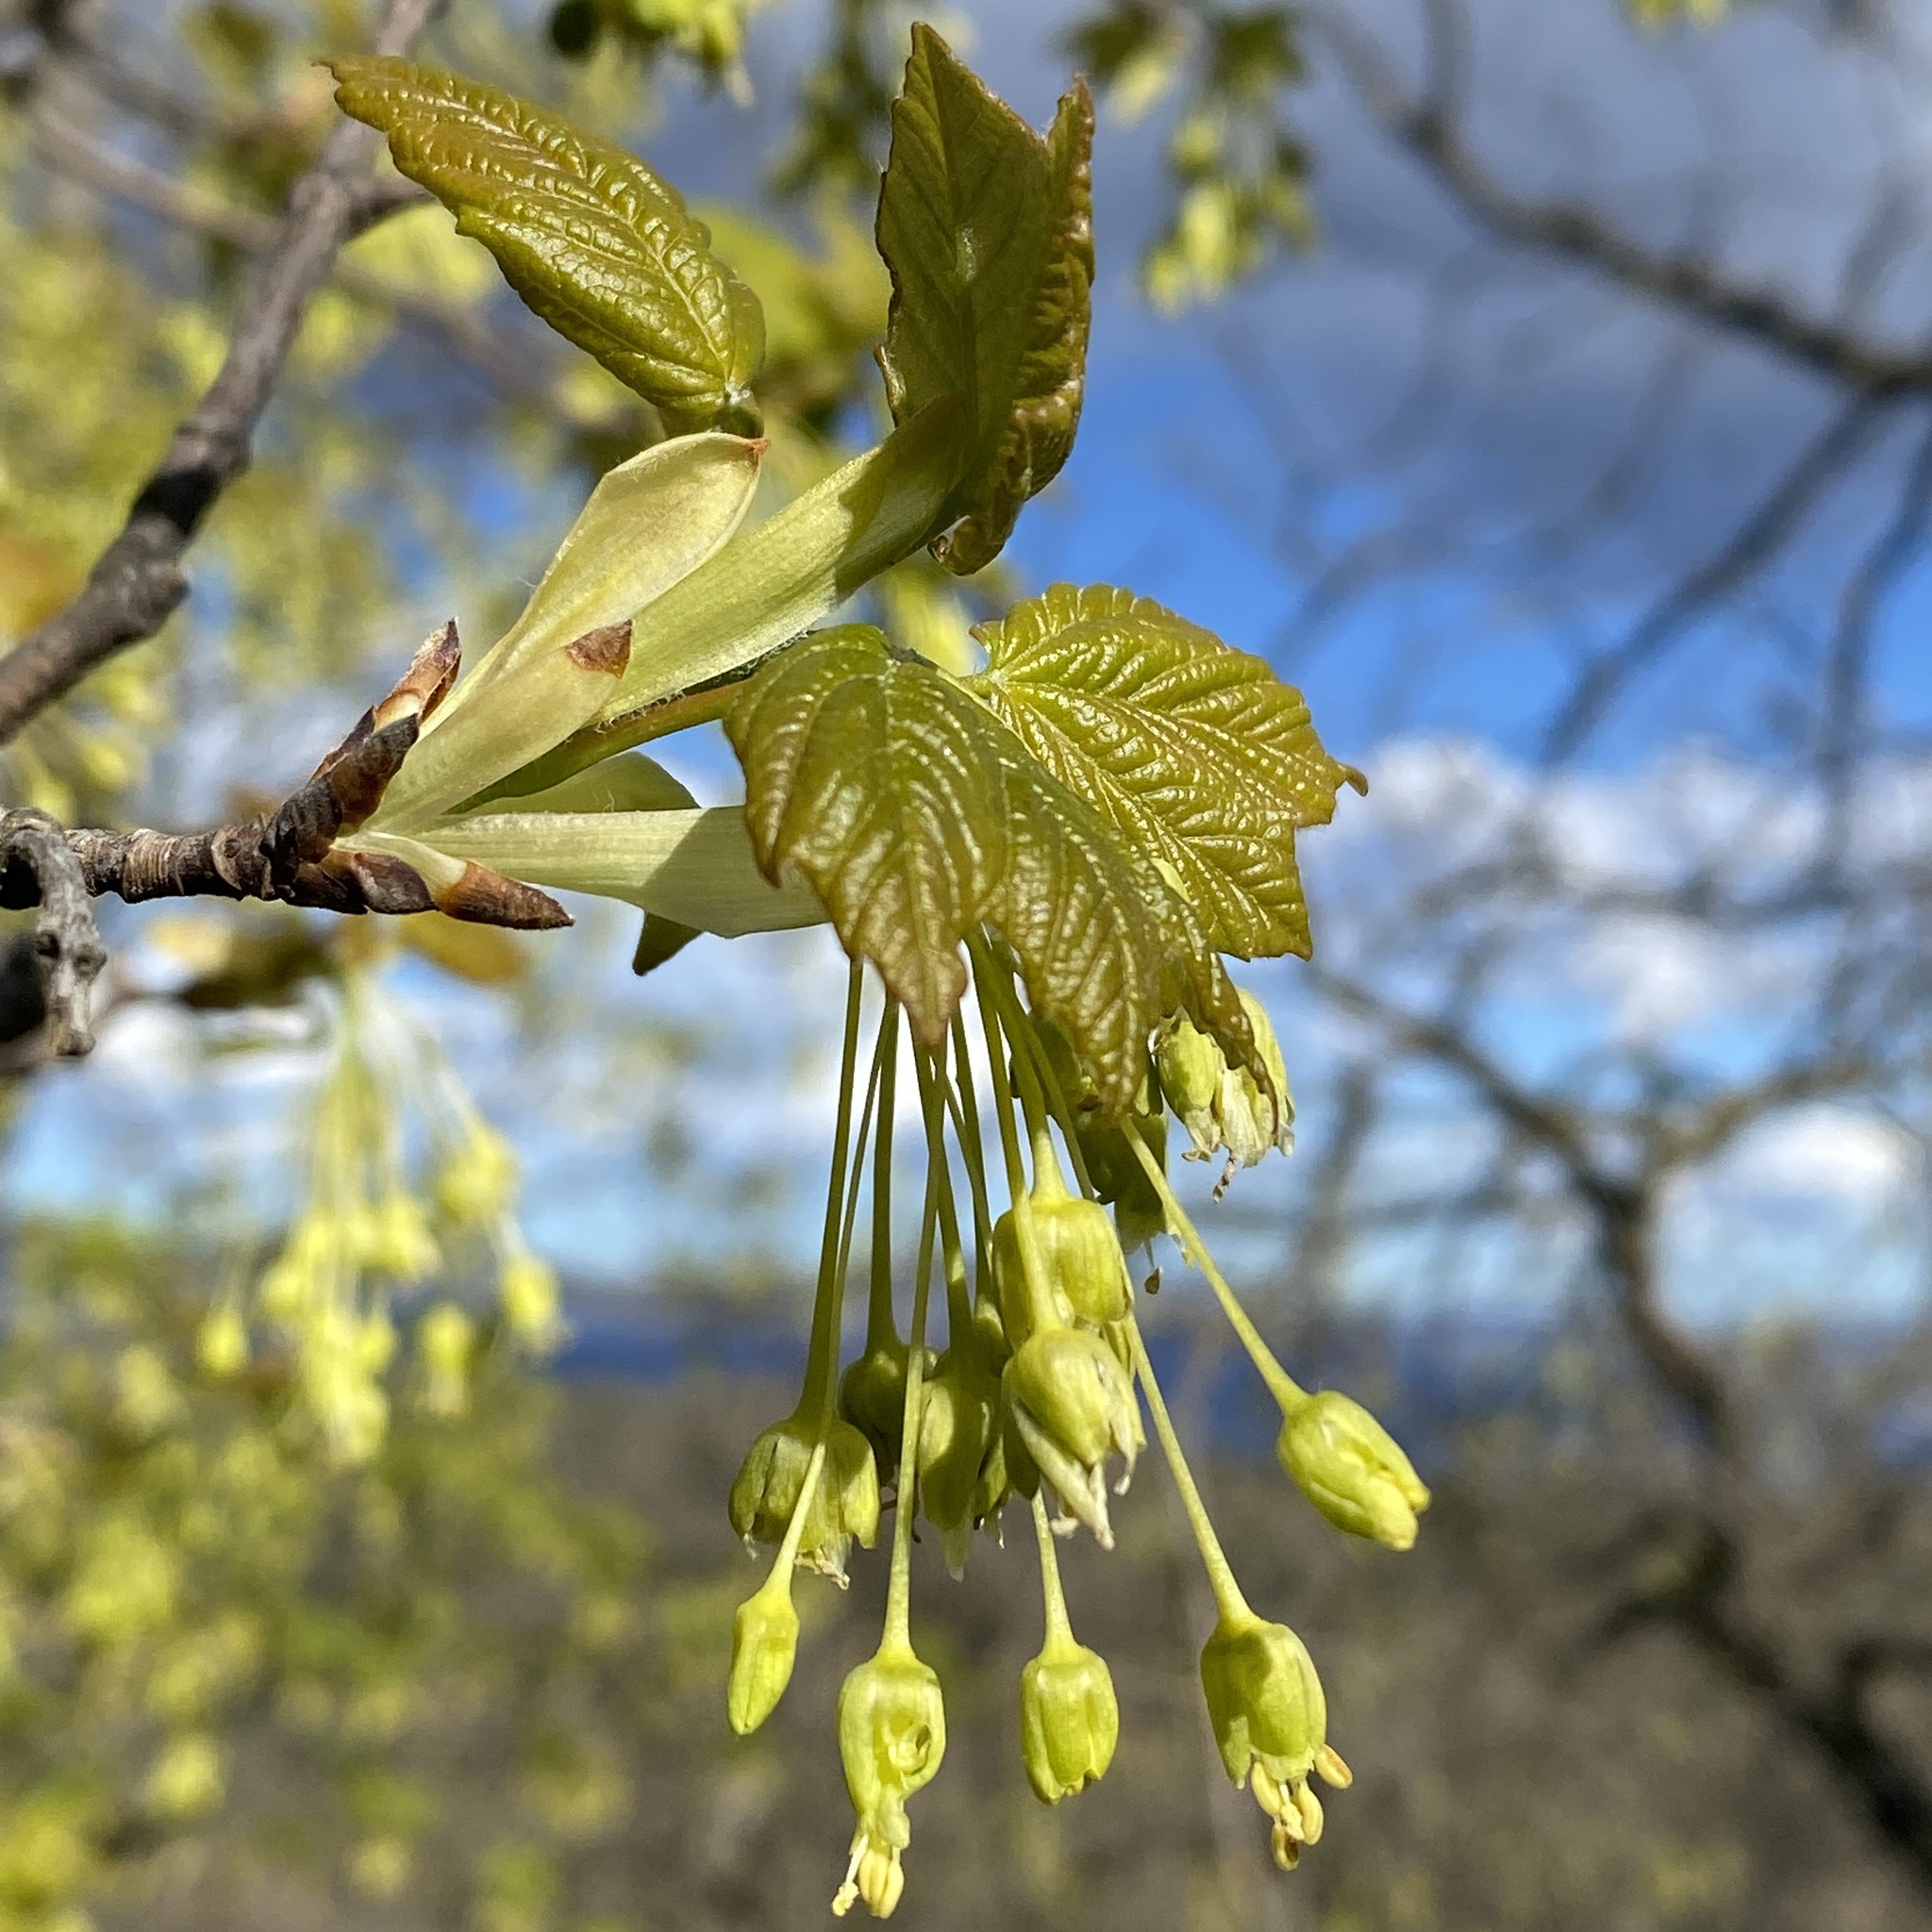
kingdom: Plantae
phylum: Tracheophyta
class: Magnoliopsida
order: Sapindales
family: Sapindaceae
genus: Acer
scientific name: Acer opalus
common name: Italian maple
